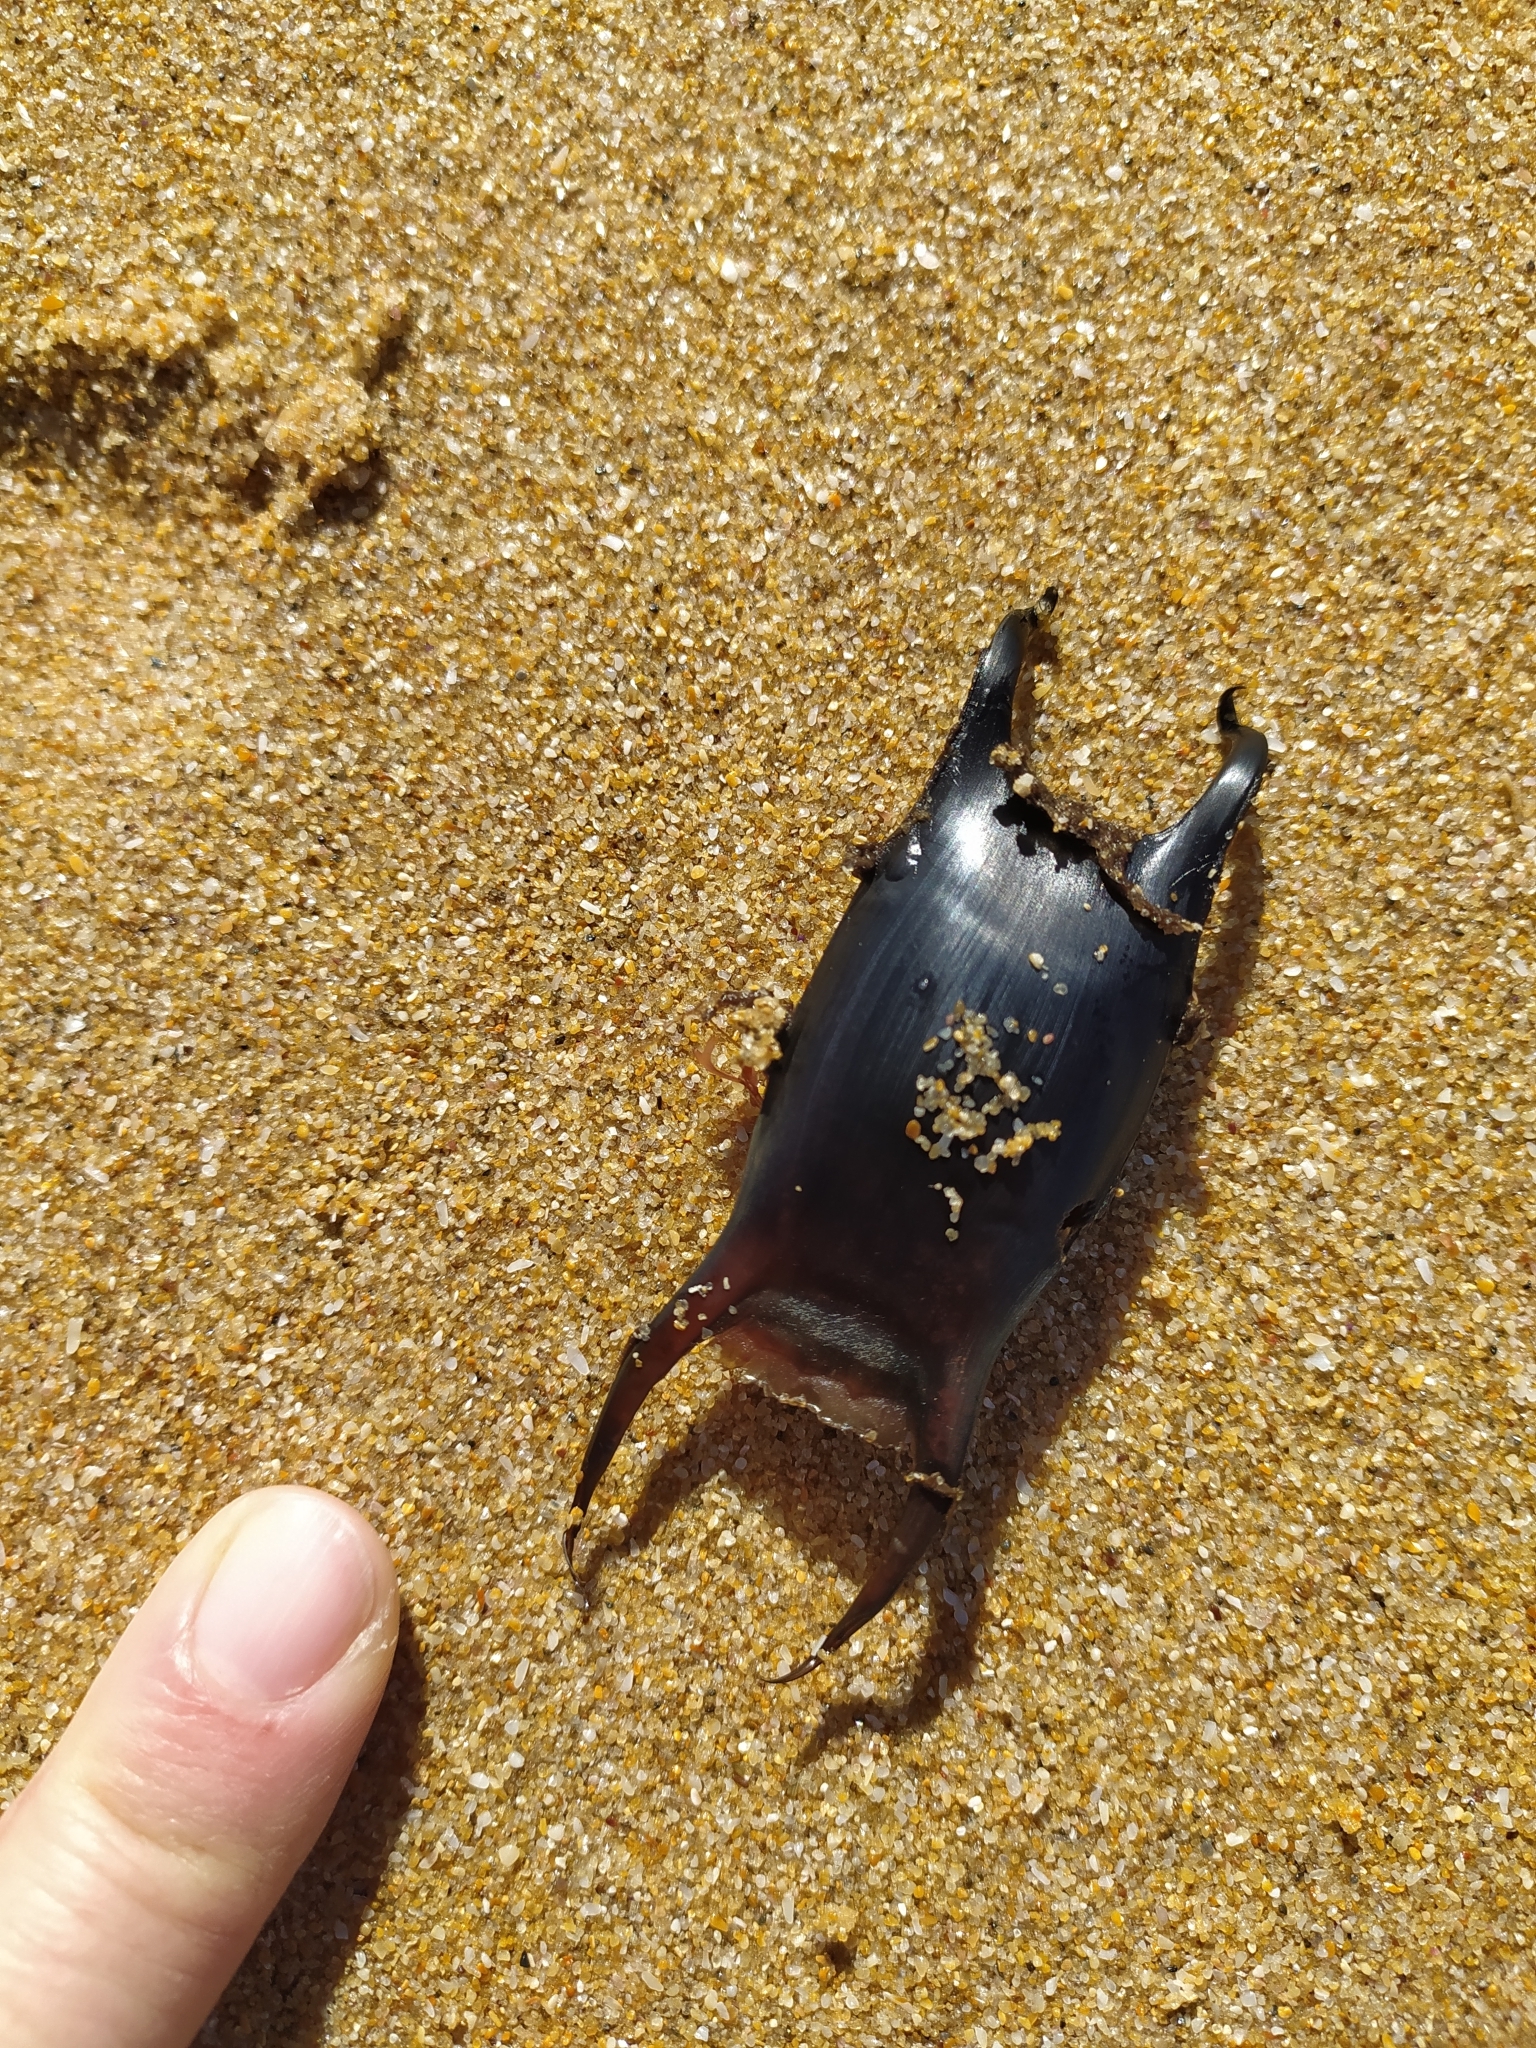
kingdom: Animalia
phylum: Chordata
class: Elasmobranchii
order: Rajiformes
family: Rajidae
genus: Raja
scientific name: Raja ocellifera
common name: Twineye skate
